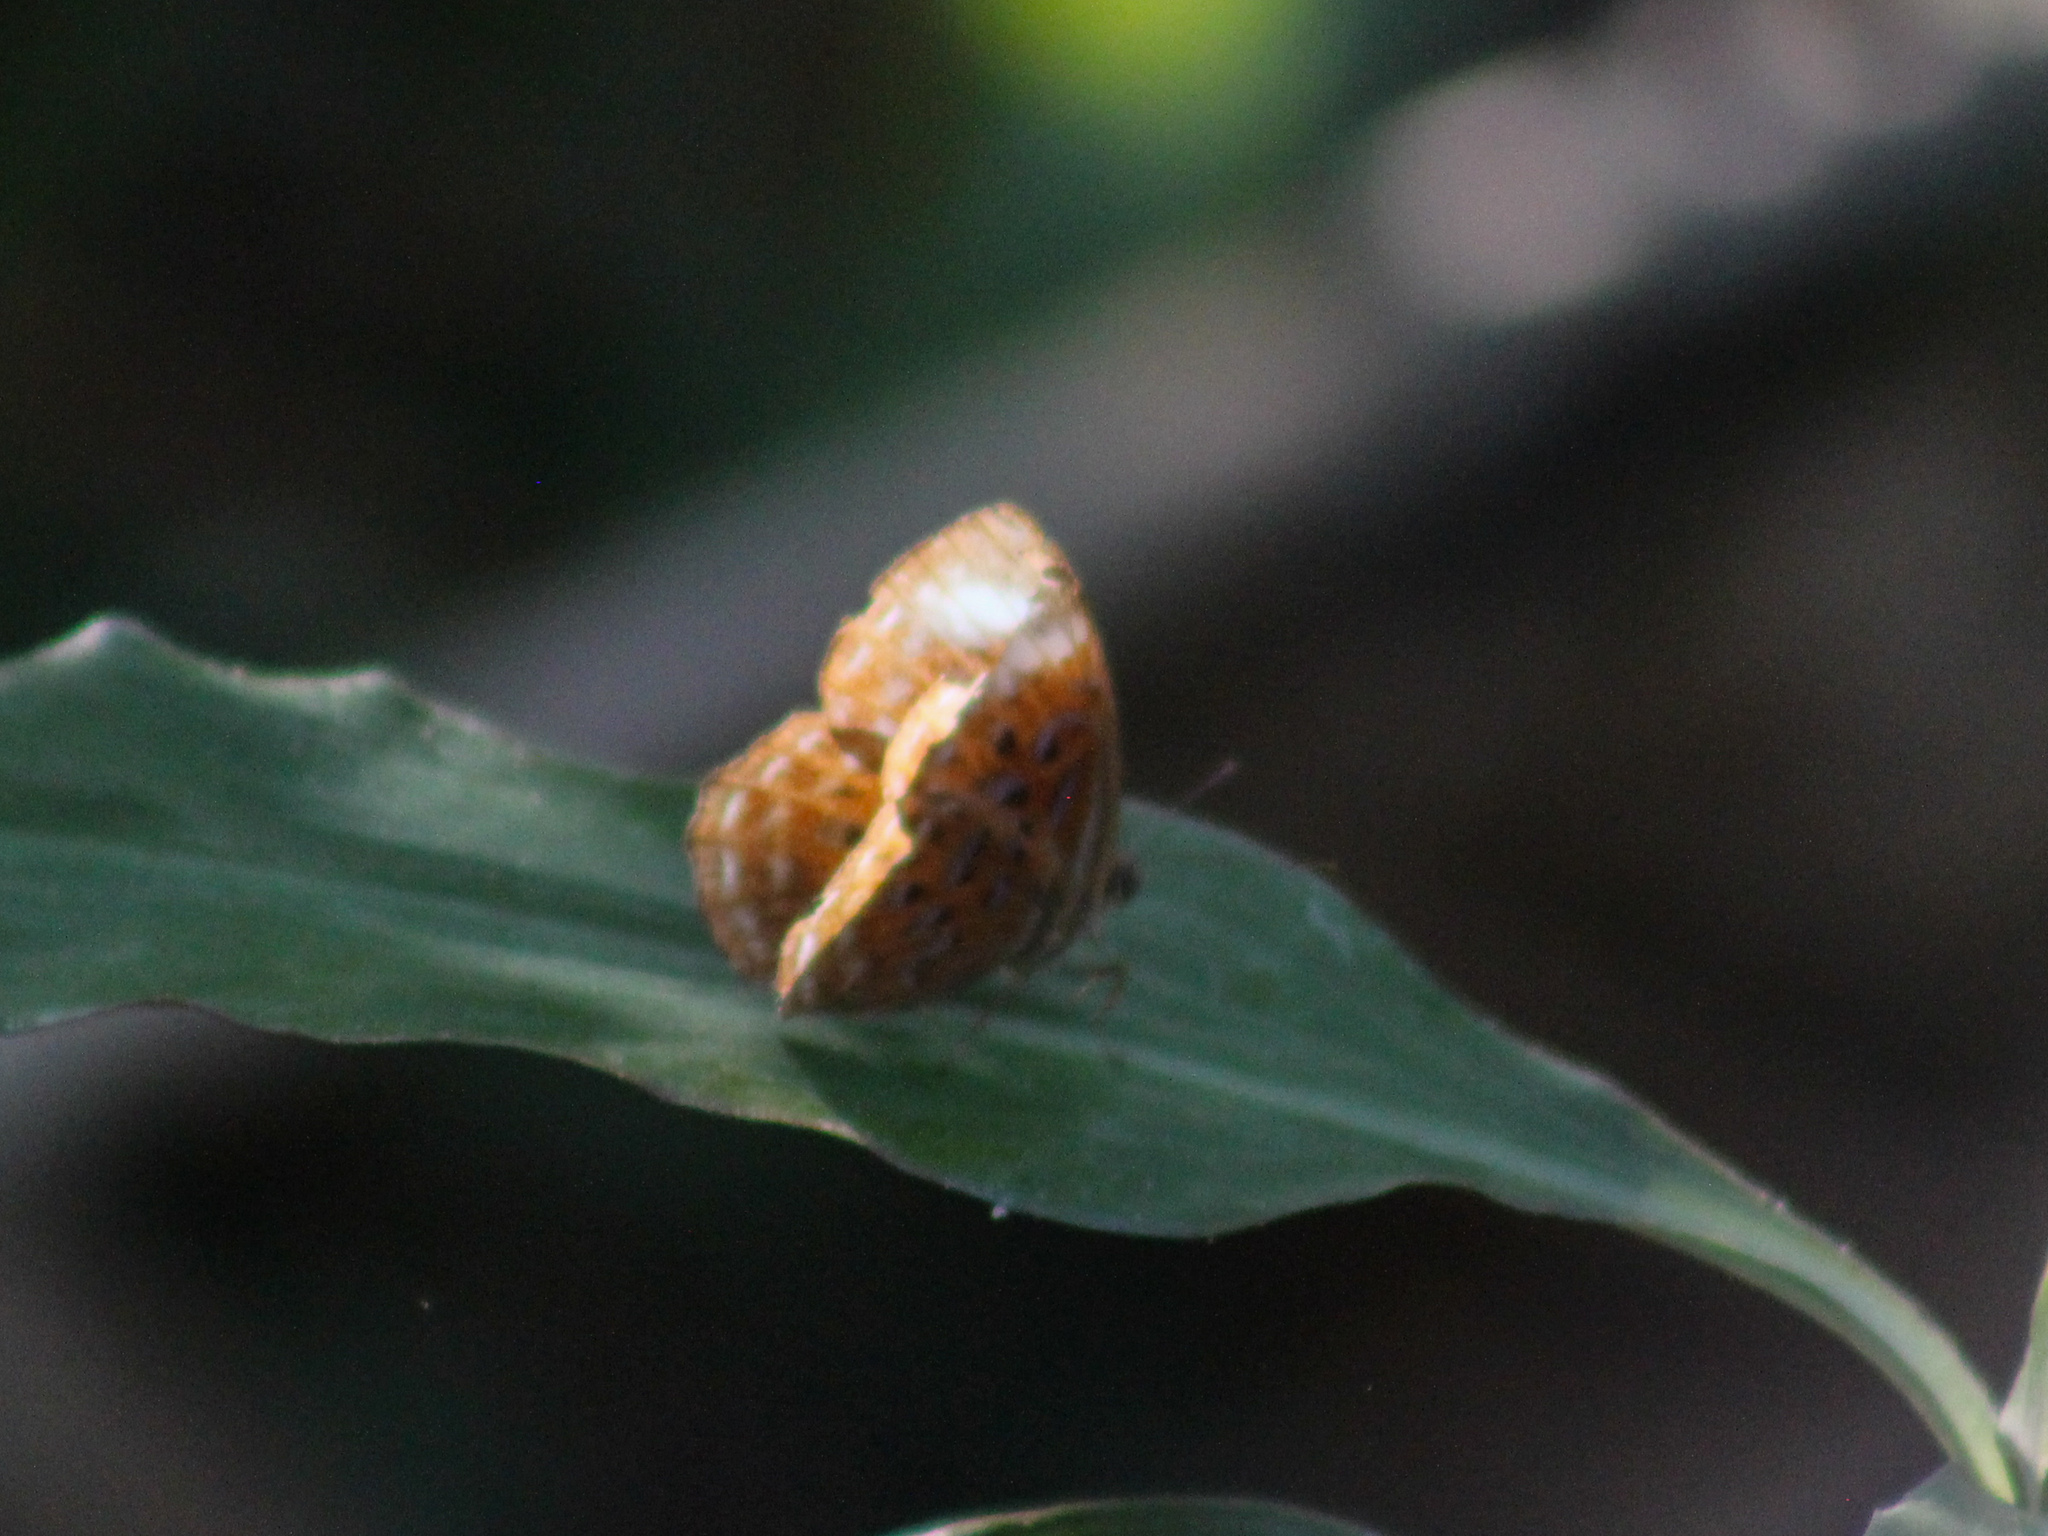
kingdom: Animalia
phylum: Arthropoda
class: Insecta
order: Lepidoptera
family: Erebidae
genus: Dysschema
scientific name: Dysschema
